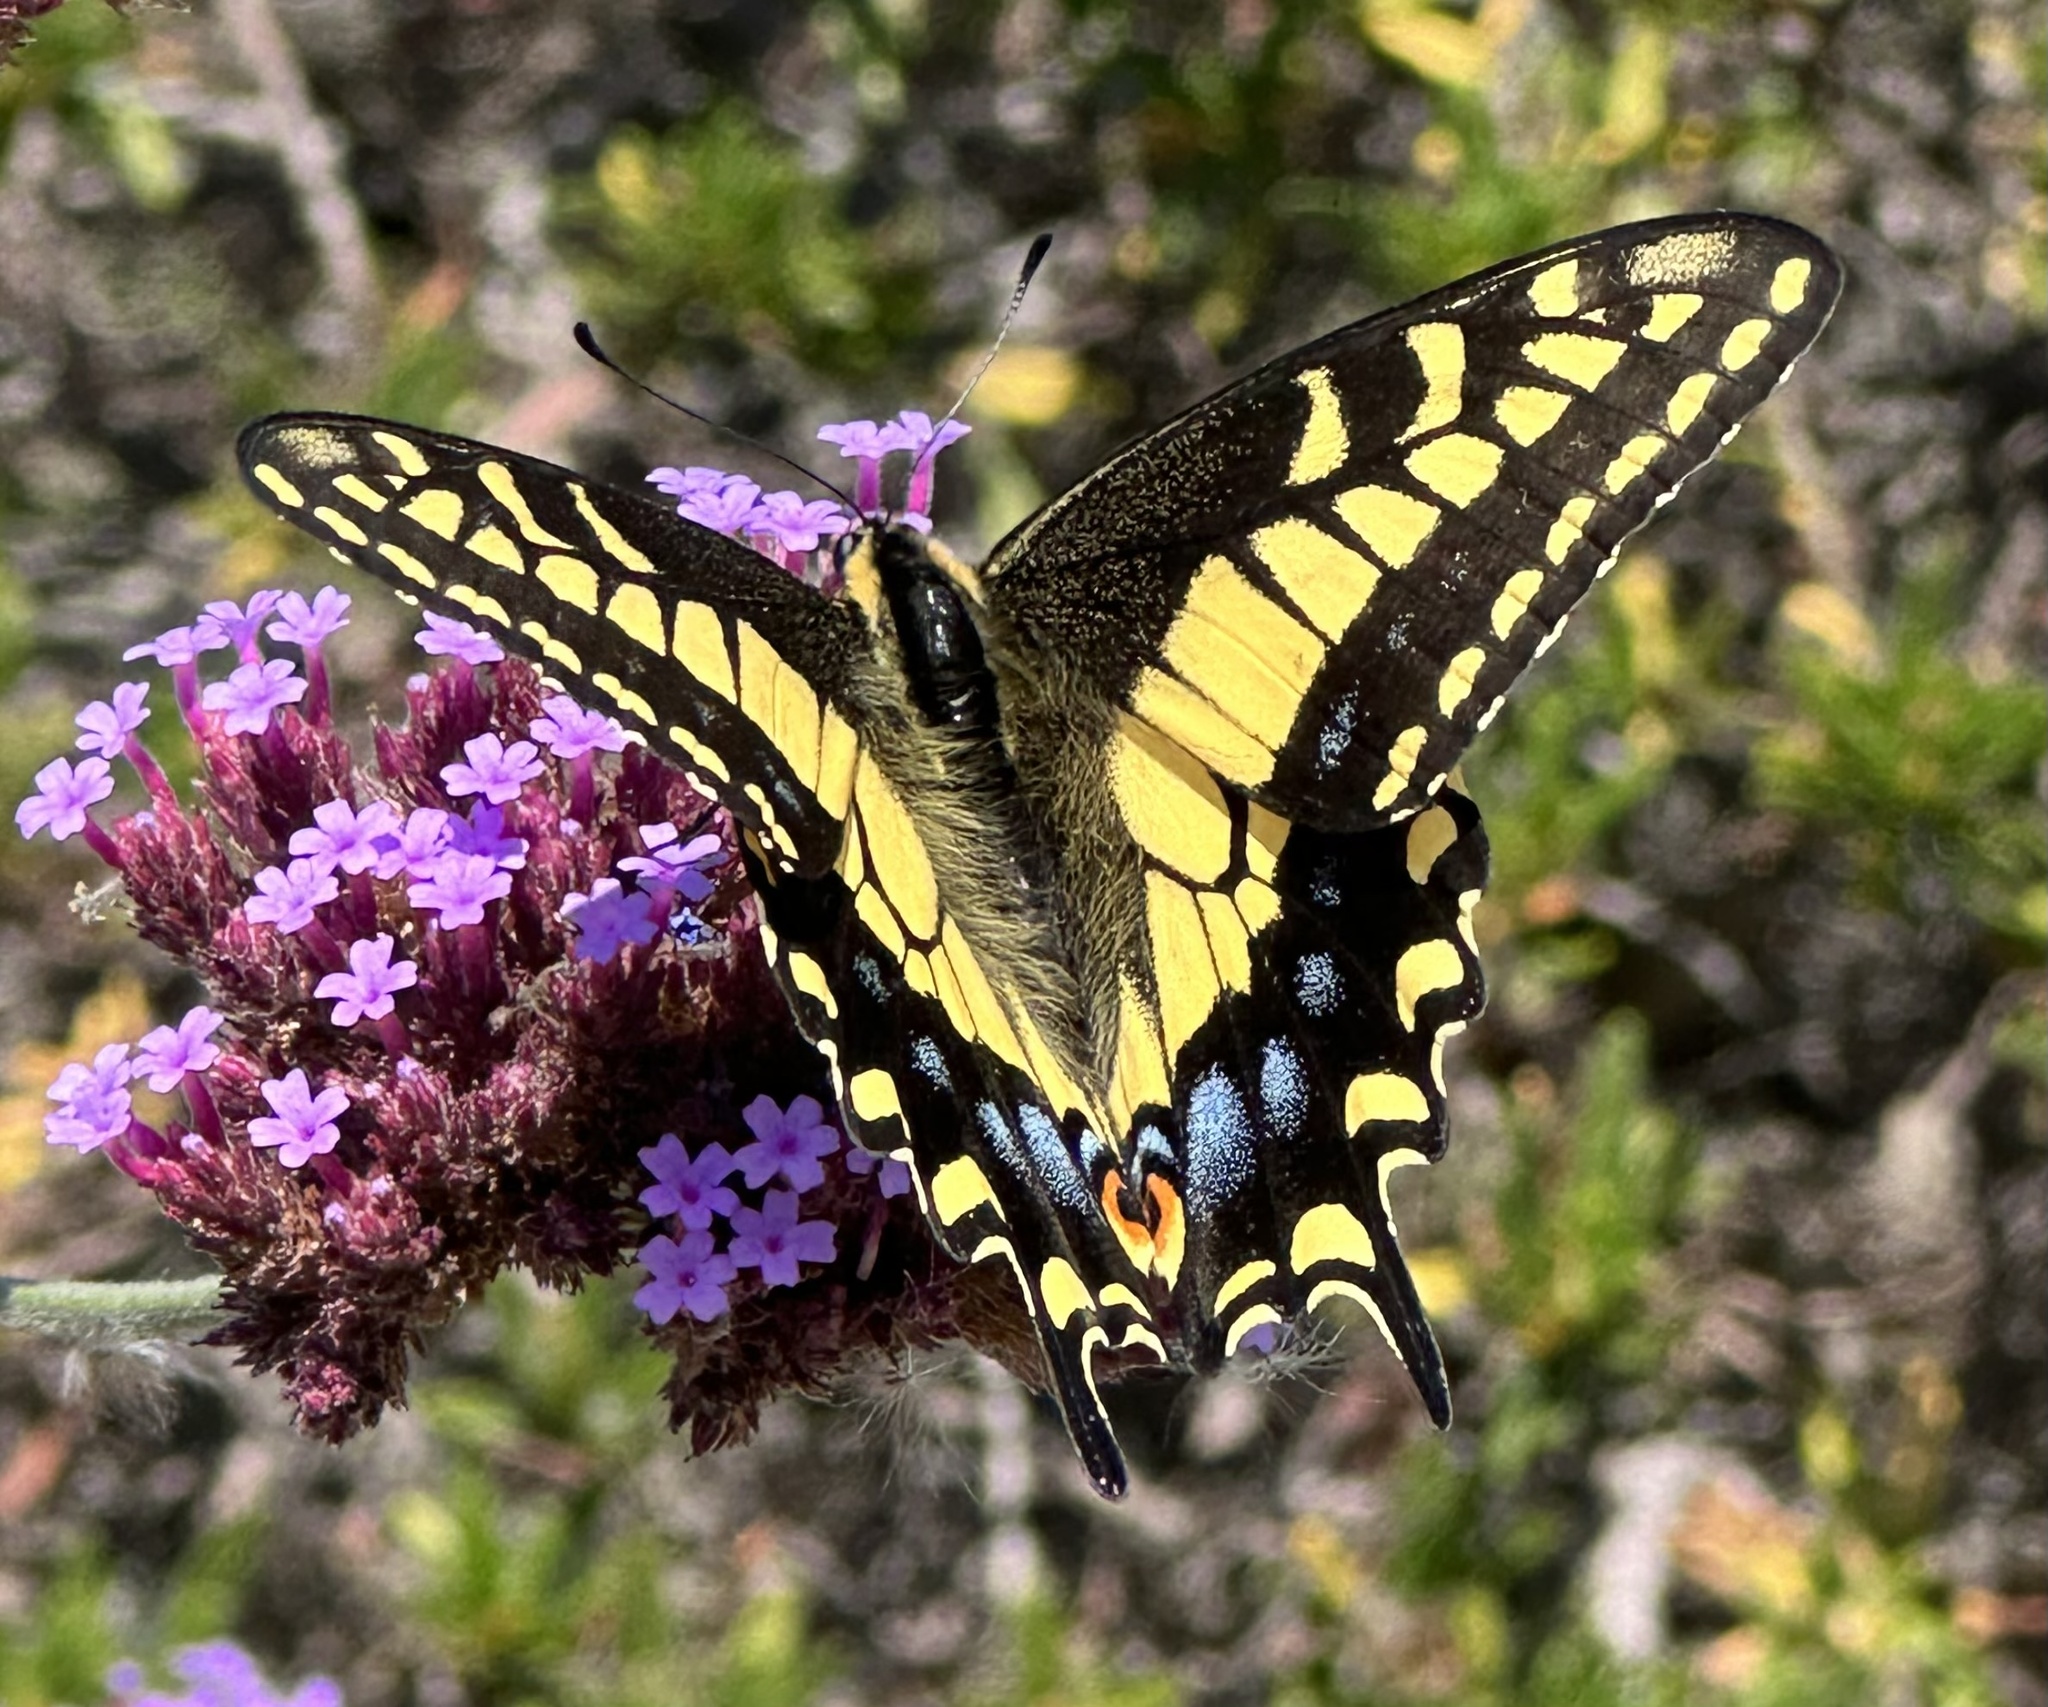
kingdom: Animalia
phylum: Arthropoda
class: Insecta
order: Lepidoptera
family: Papilionidae
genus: Papilio
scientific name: Papilio zelicaon
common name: Anise swallowtail
